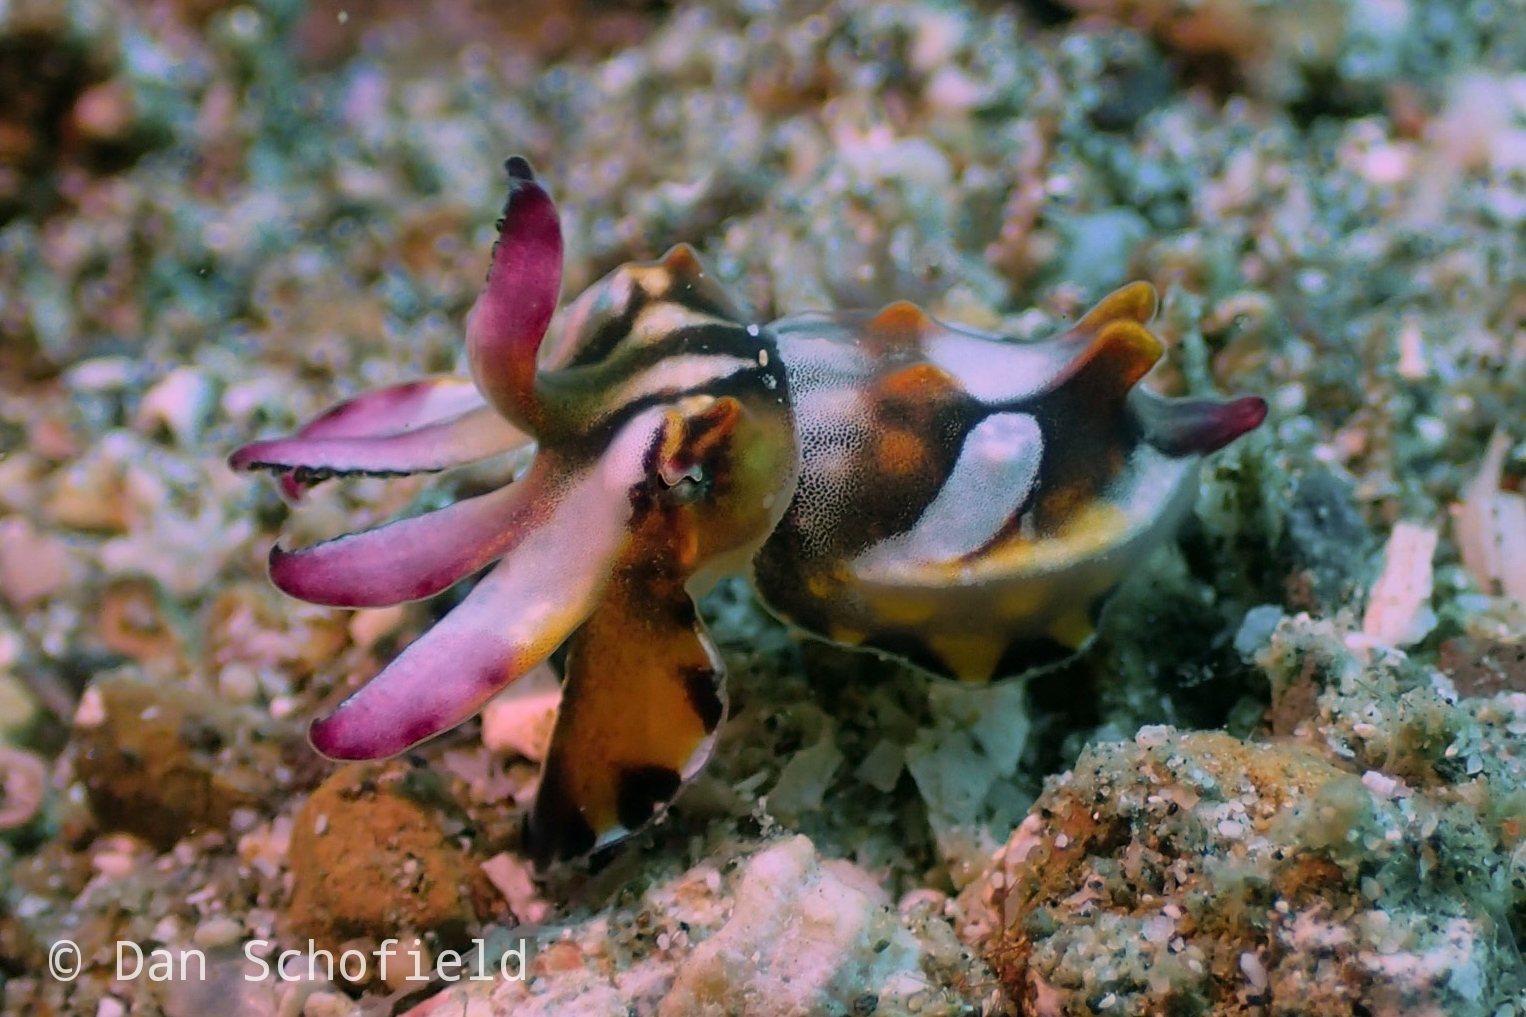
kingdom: Animalia
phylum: Mollusca
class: Cephalopoda
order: Sepiida
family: Sepiidae
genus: Ascarosepion
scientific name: Ascarosepion pfefferi
